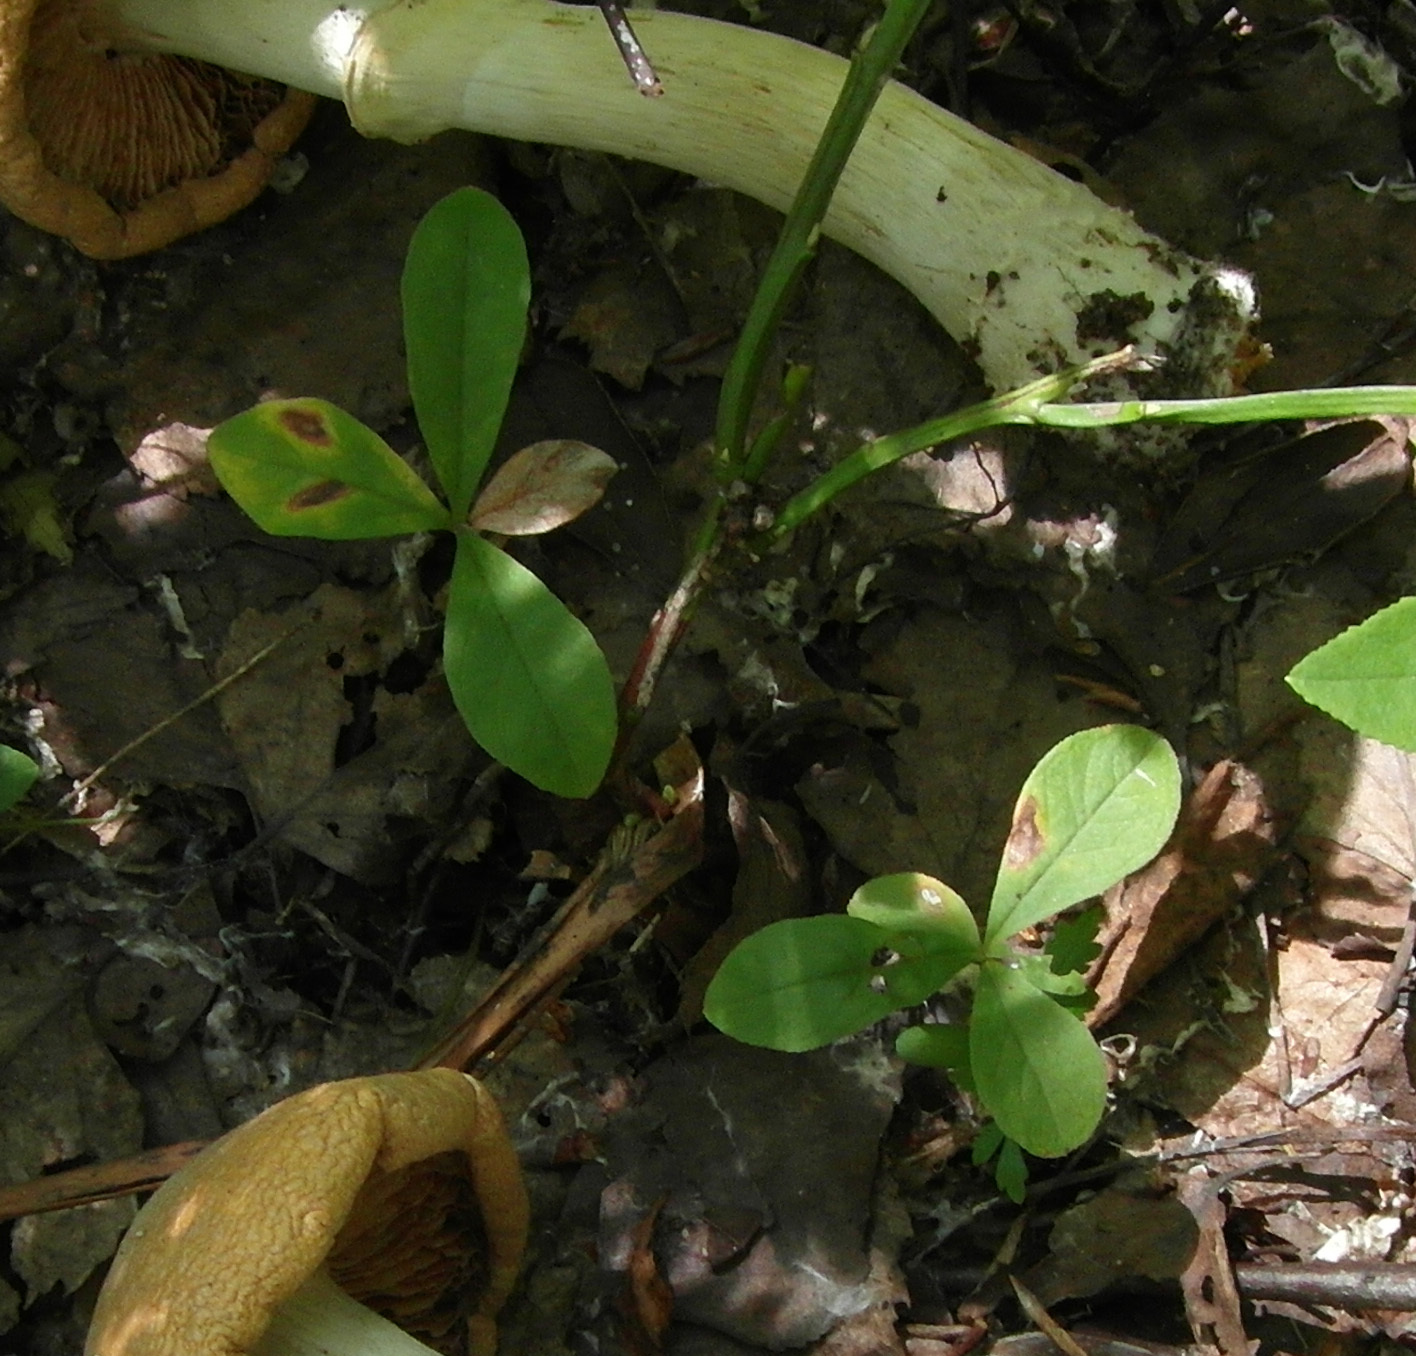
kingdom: Plantae
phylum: Tracheophyta
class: Magnoliopsida
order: Ericales
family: Primulaceae
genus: Lysimachia
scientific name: Lysimachia europaea
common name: Arctic starflower
